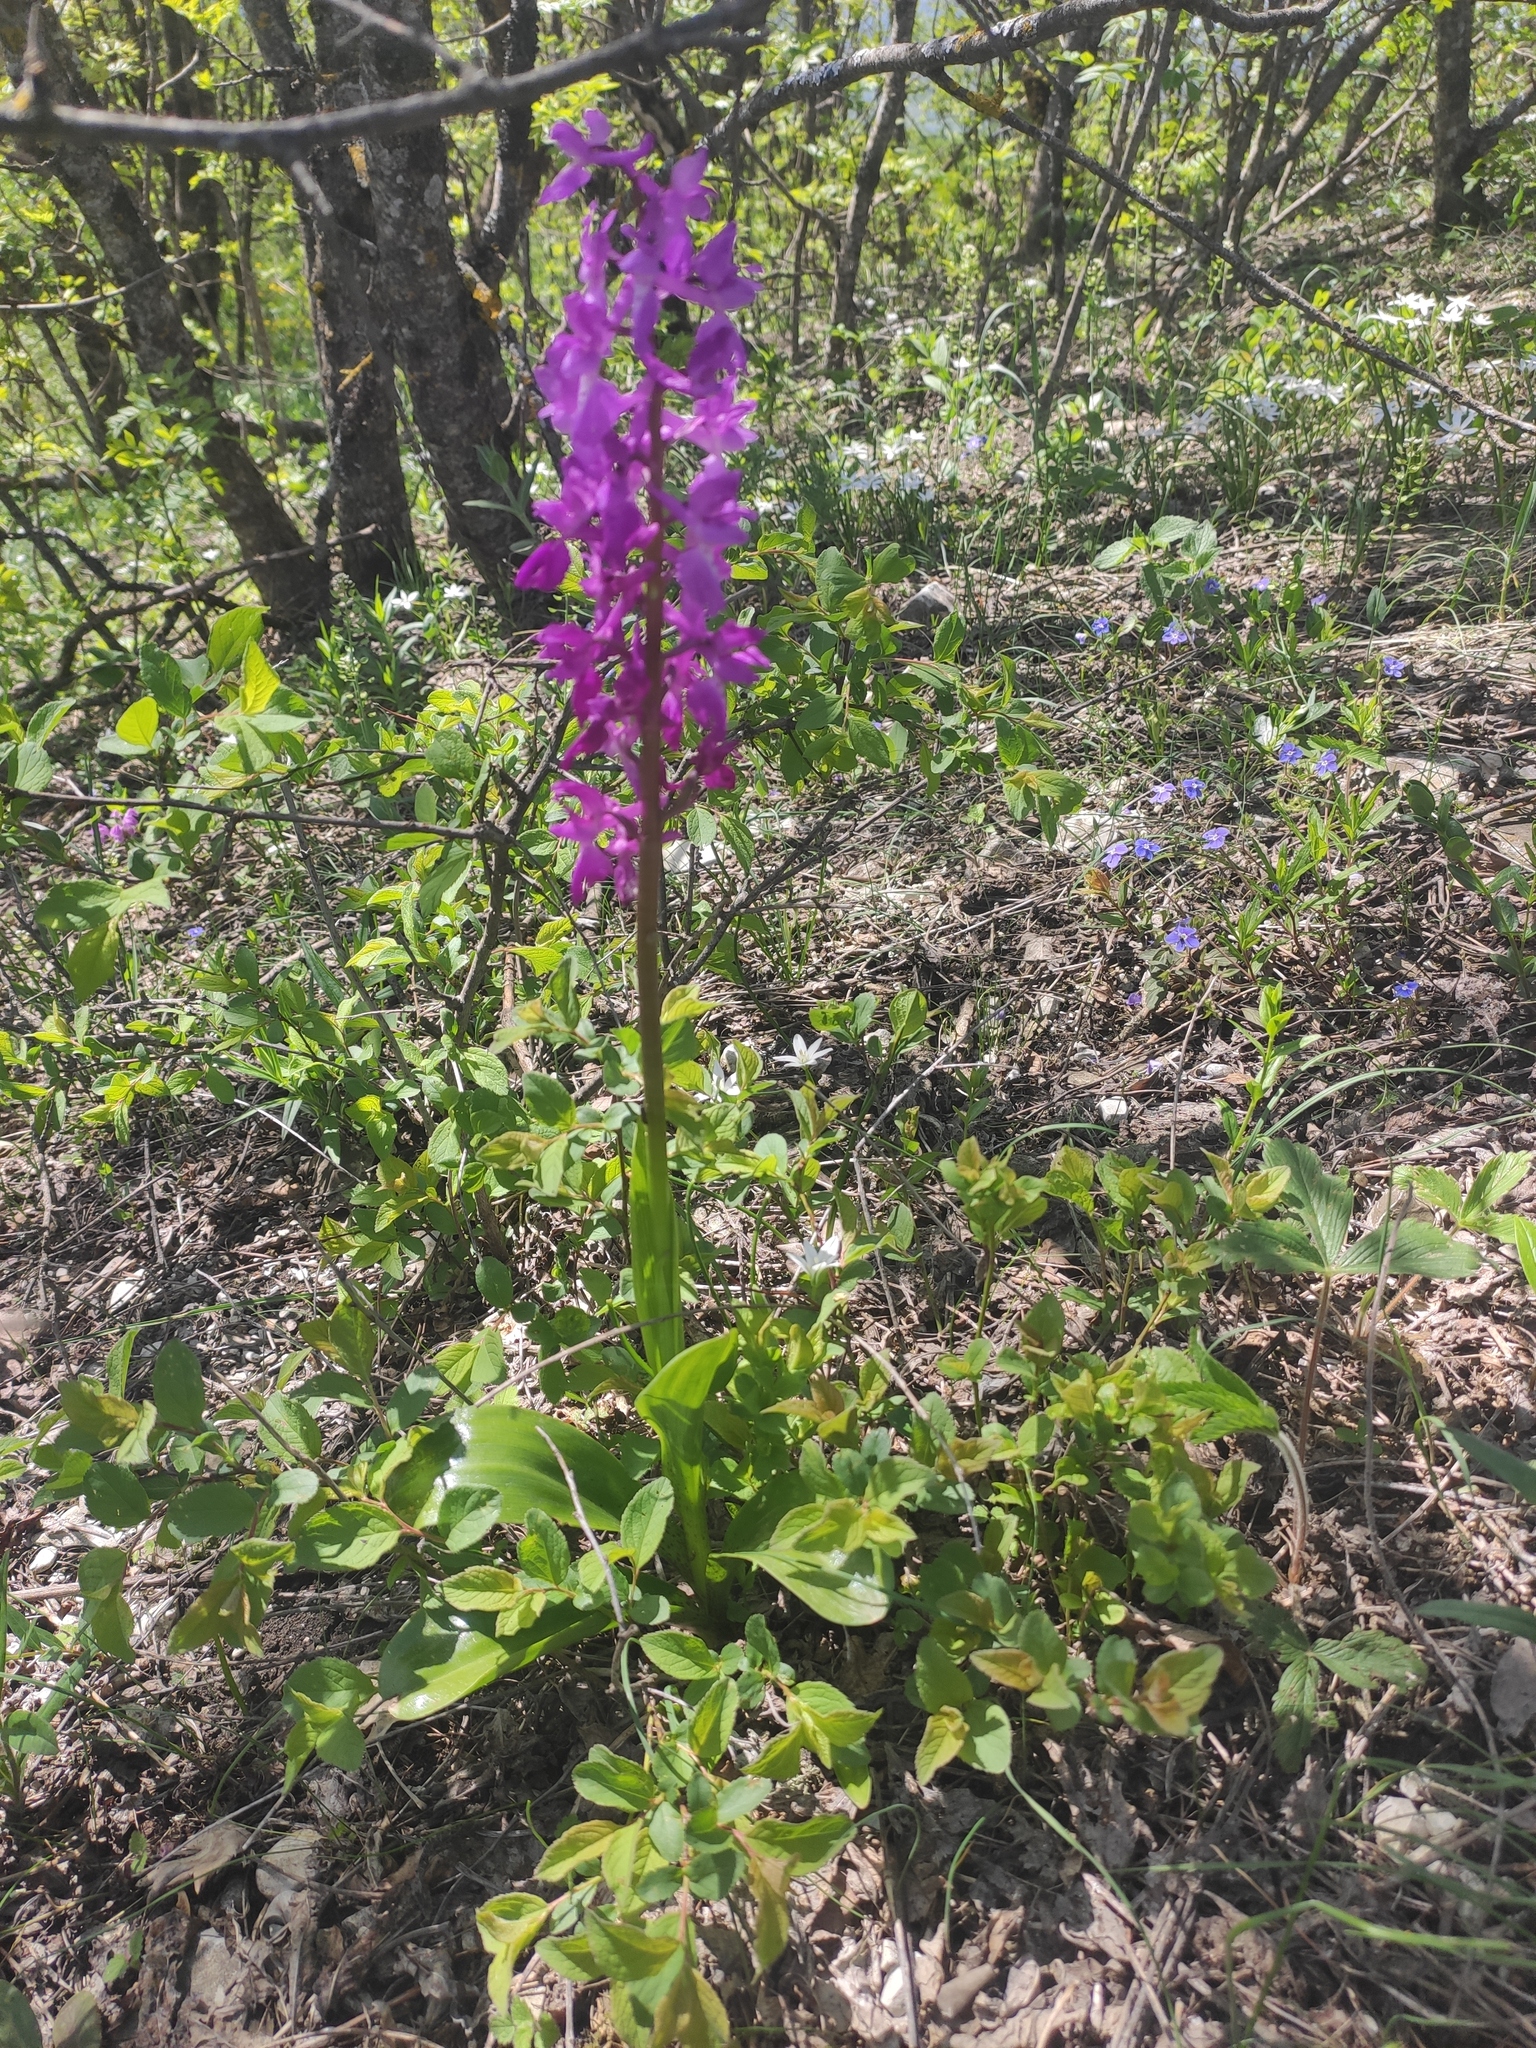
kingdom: Plantae
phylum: Tracheophyta
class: Liliopsida
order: Asparagales
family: Orchidaceae
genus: Orchis
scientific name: Orchis mascula
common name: Early-purple orchid
